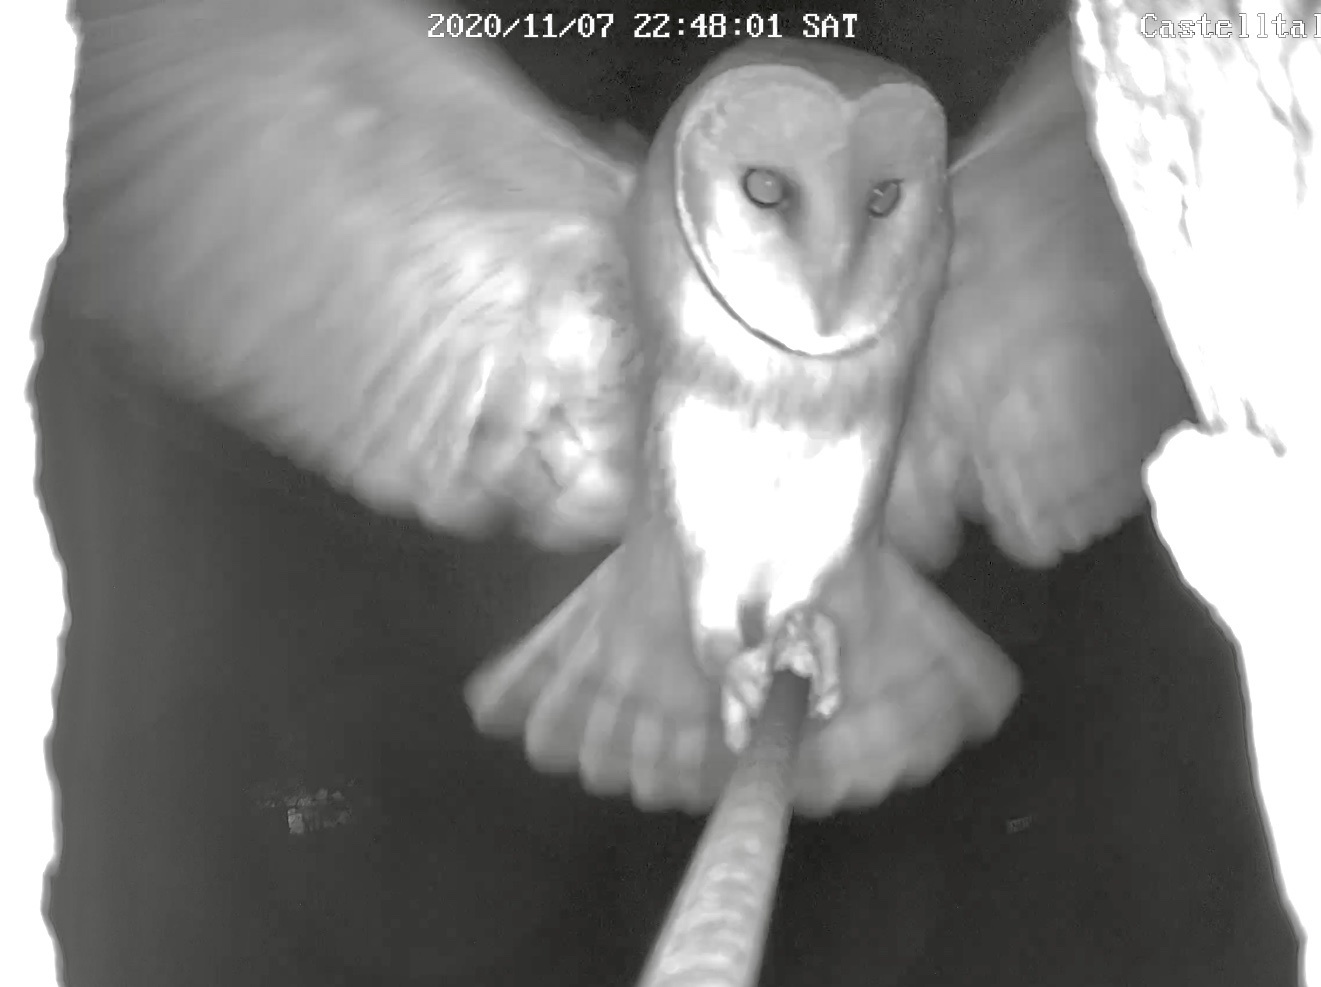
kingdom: Animalia
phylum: Chordata
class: Aves
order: Strigiformes
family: Tytonidae
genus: Tyto
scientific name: Tyto alba
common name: Barn owl
